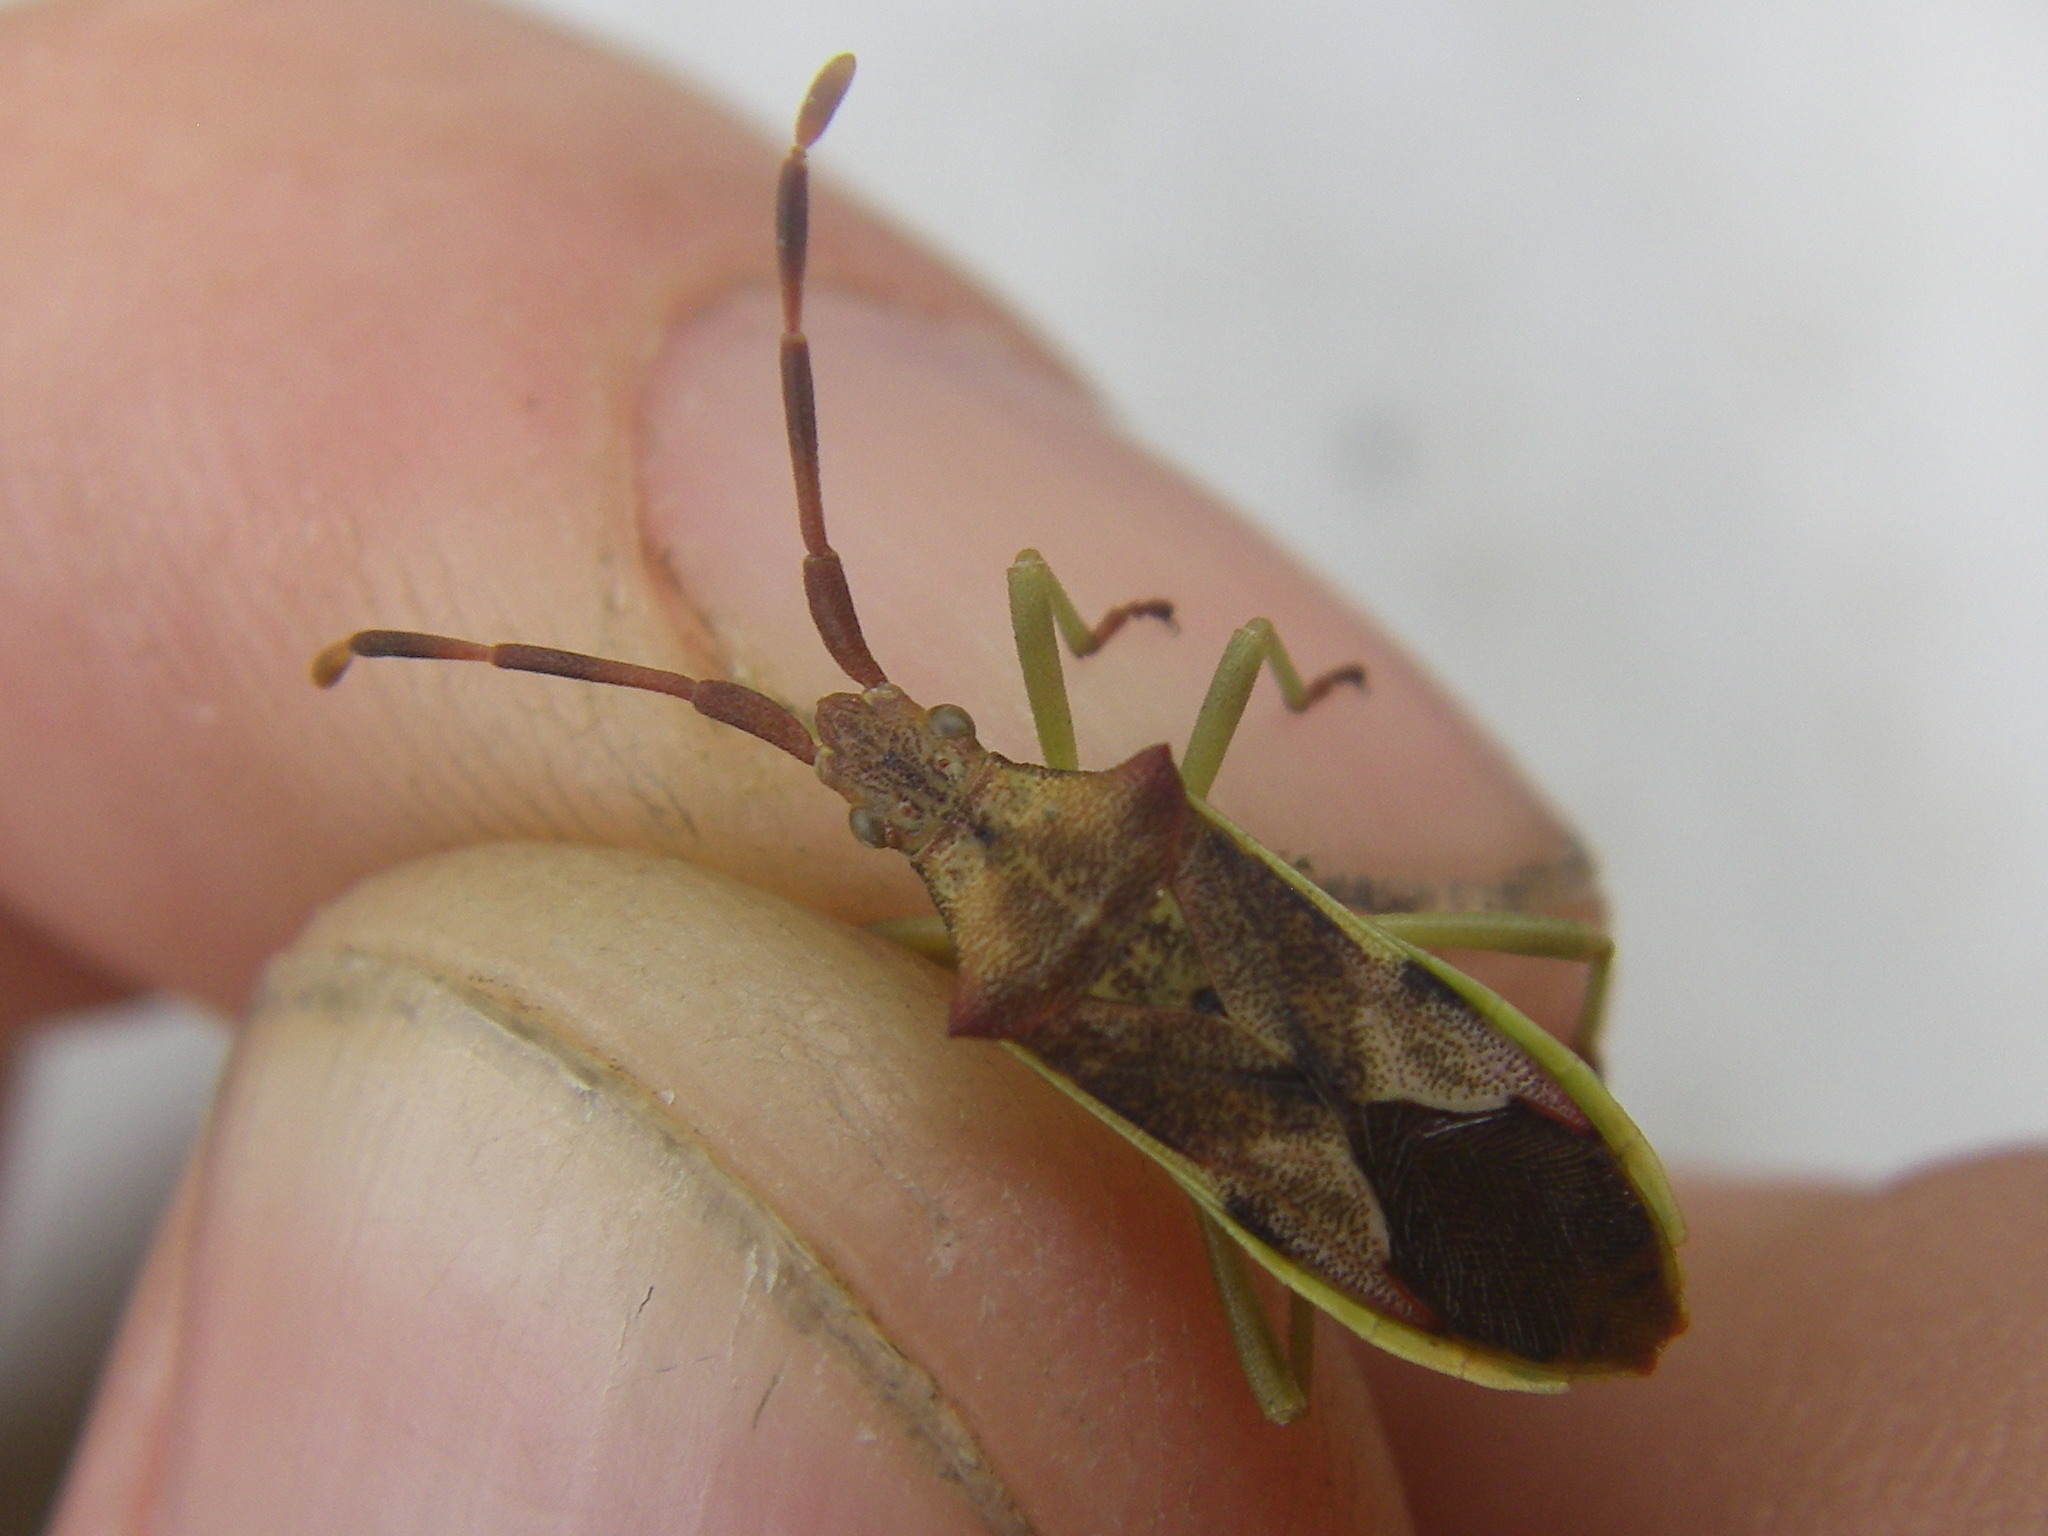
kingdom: Animalia
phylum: Arthropoda
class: Insecta
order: Hemiptera
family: Coreidae
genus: Gonocerus
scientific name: Gonocerus juniperi
